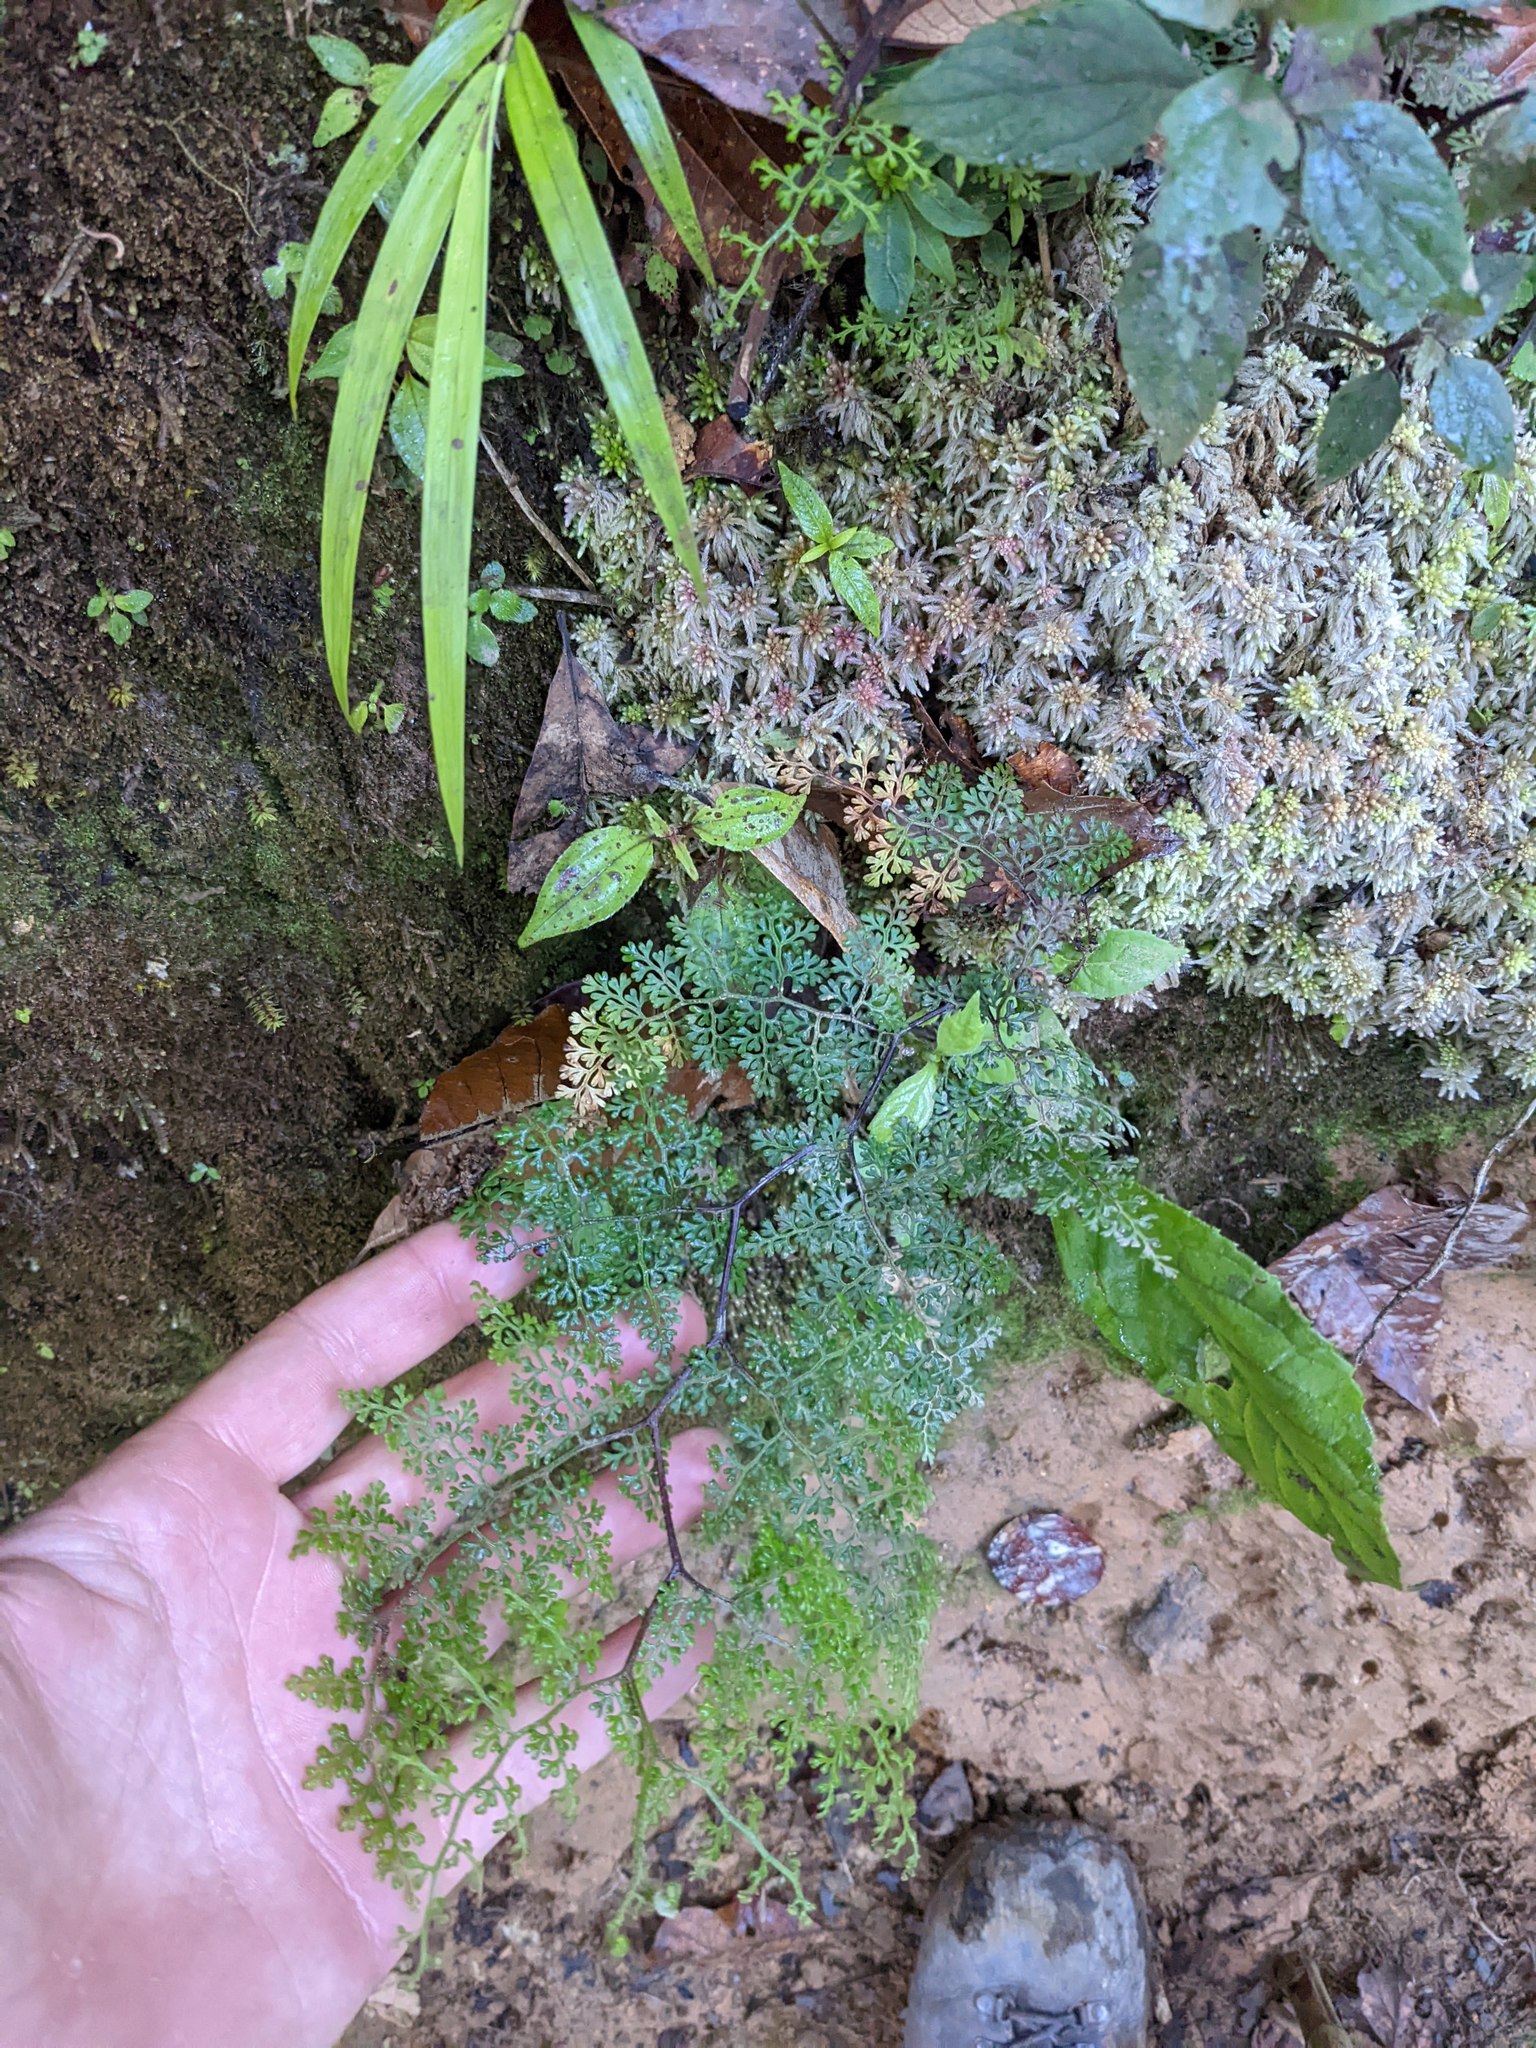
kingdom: Plantae
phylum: Tracheophyta
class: Polypodiopsida
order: Polypodiales
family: Pteridaceae
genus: Jamesonia
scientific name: Jamesonia flexuosa
